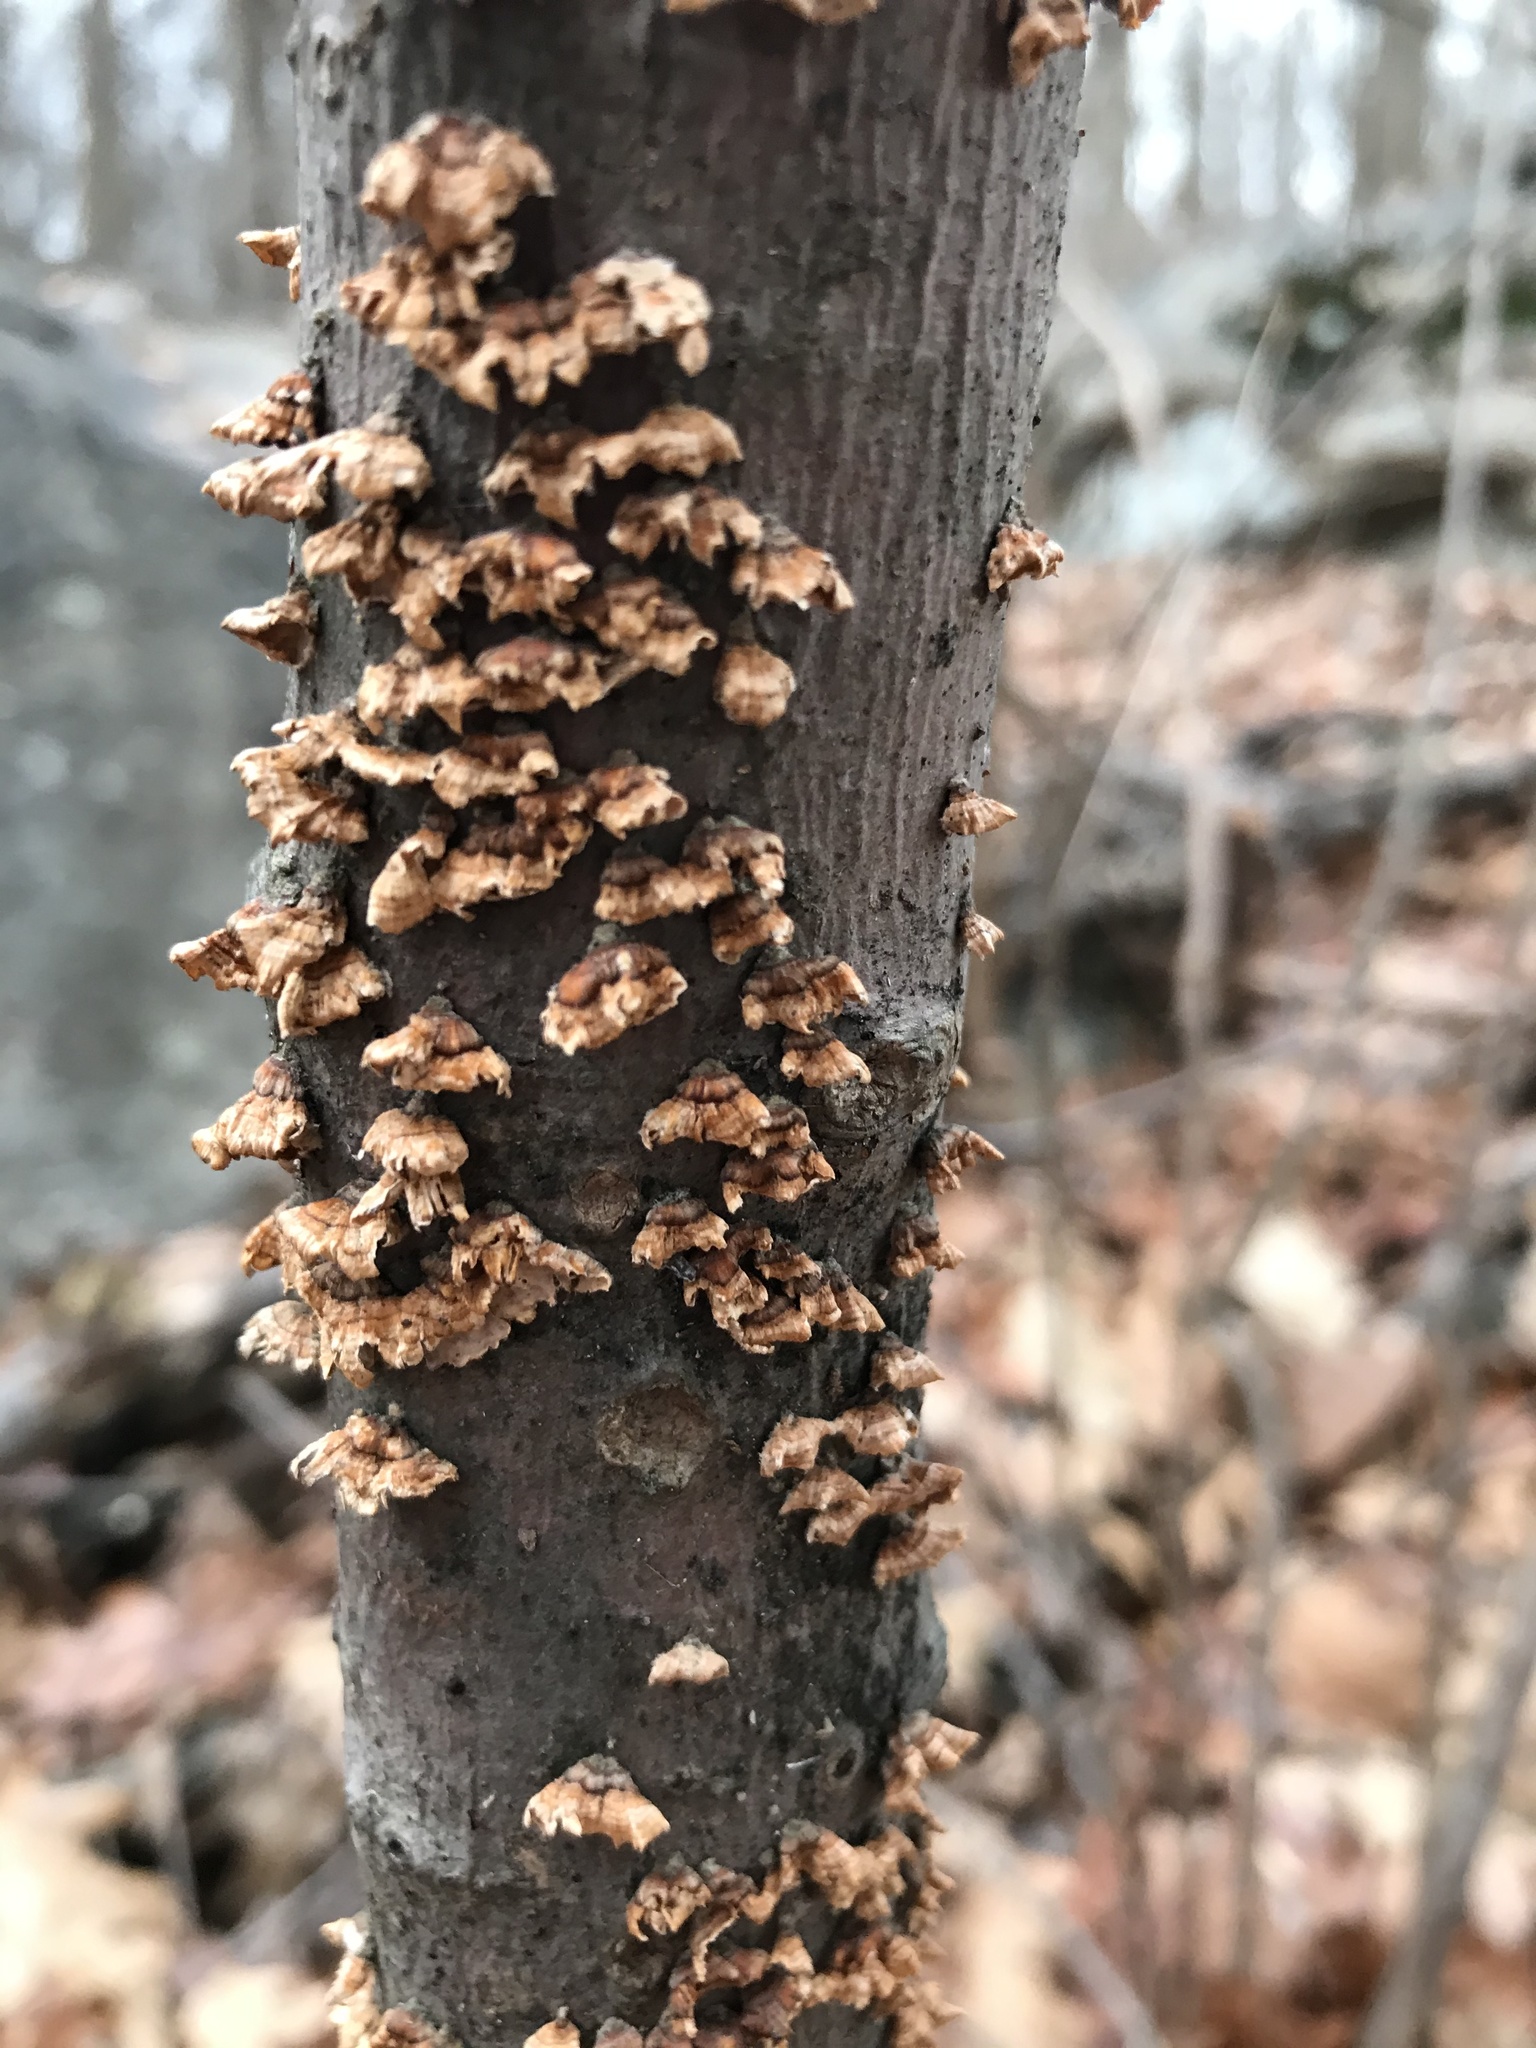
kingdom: Fungi
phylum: Basidiomycota
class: Agaricomycetes
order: Russulales
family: Stereaceae
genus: Stereum
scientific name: Stereum complicatum
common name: Crowded parchment
